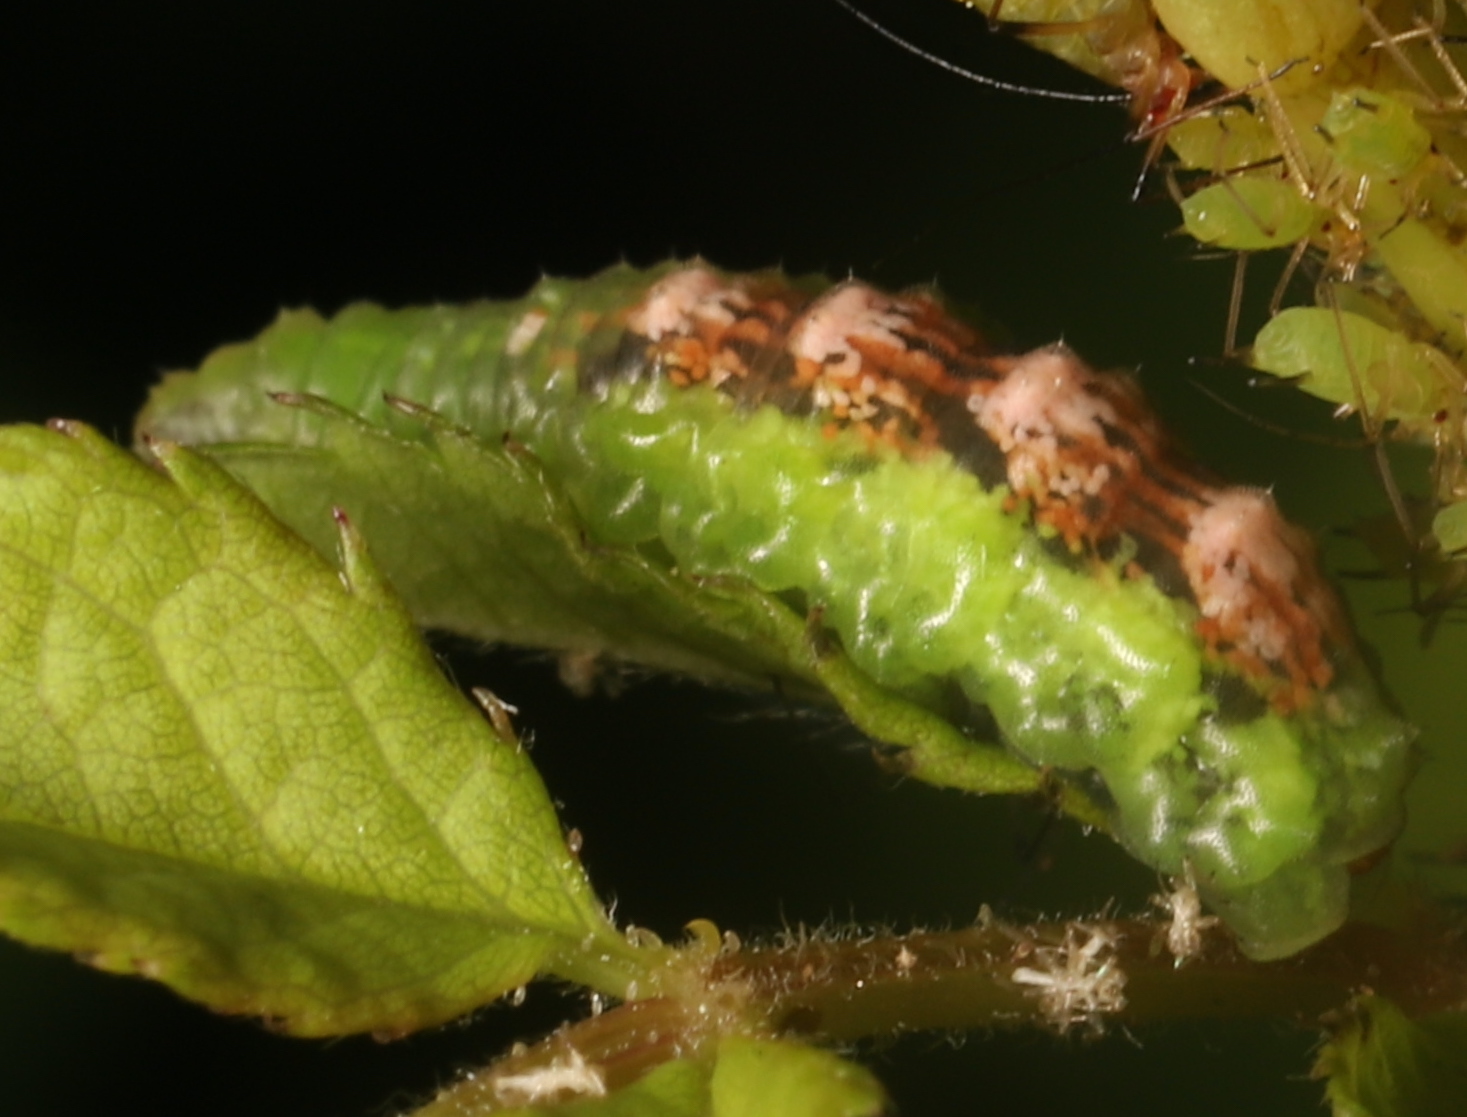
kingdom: Animalia
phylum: Arthropoda
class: Insecta
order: Diptera
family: Syrphidae
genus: Eupeodes
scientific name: Eupeodes pomus
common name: Short-tailed aphideater
